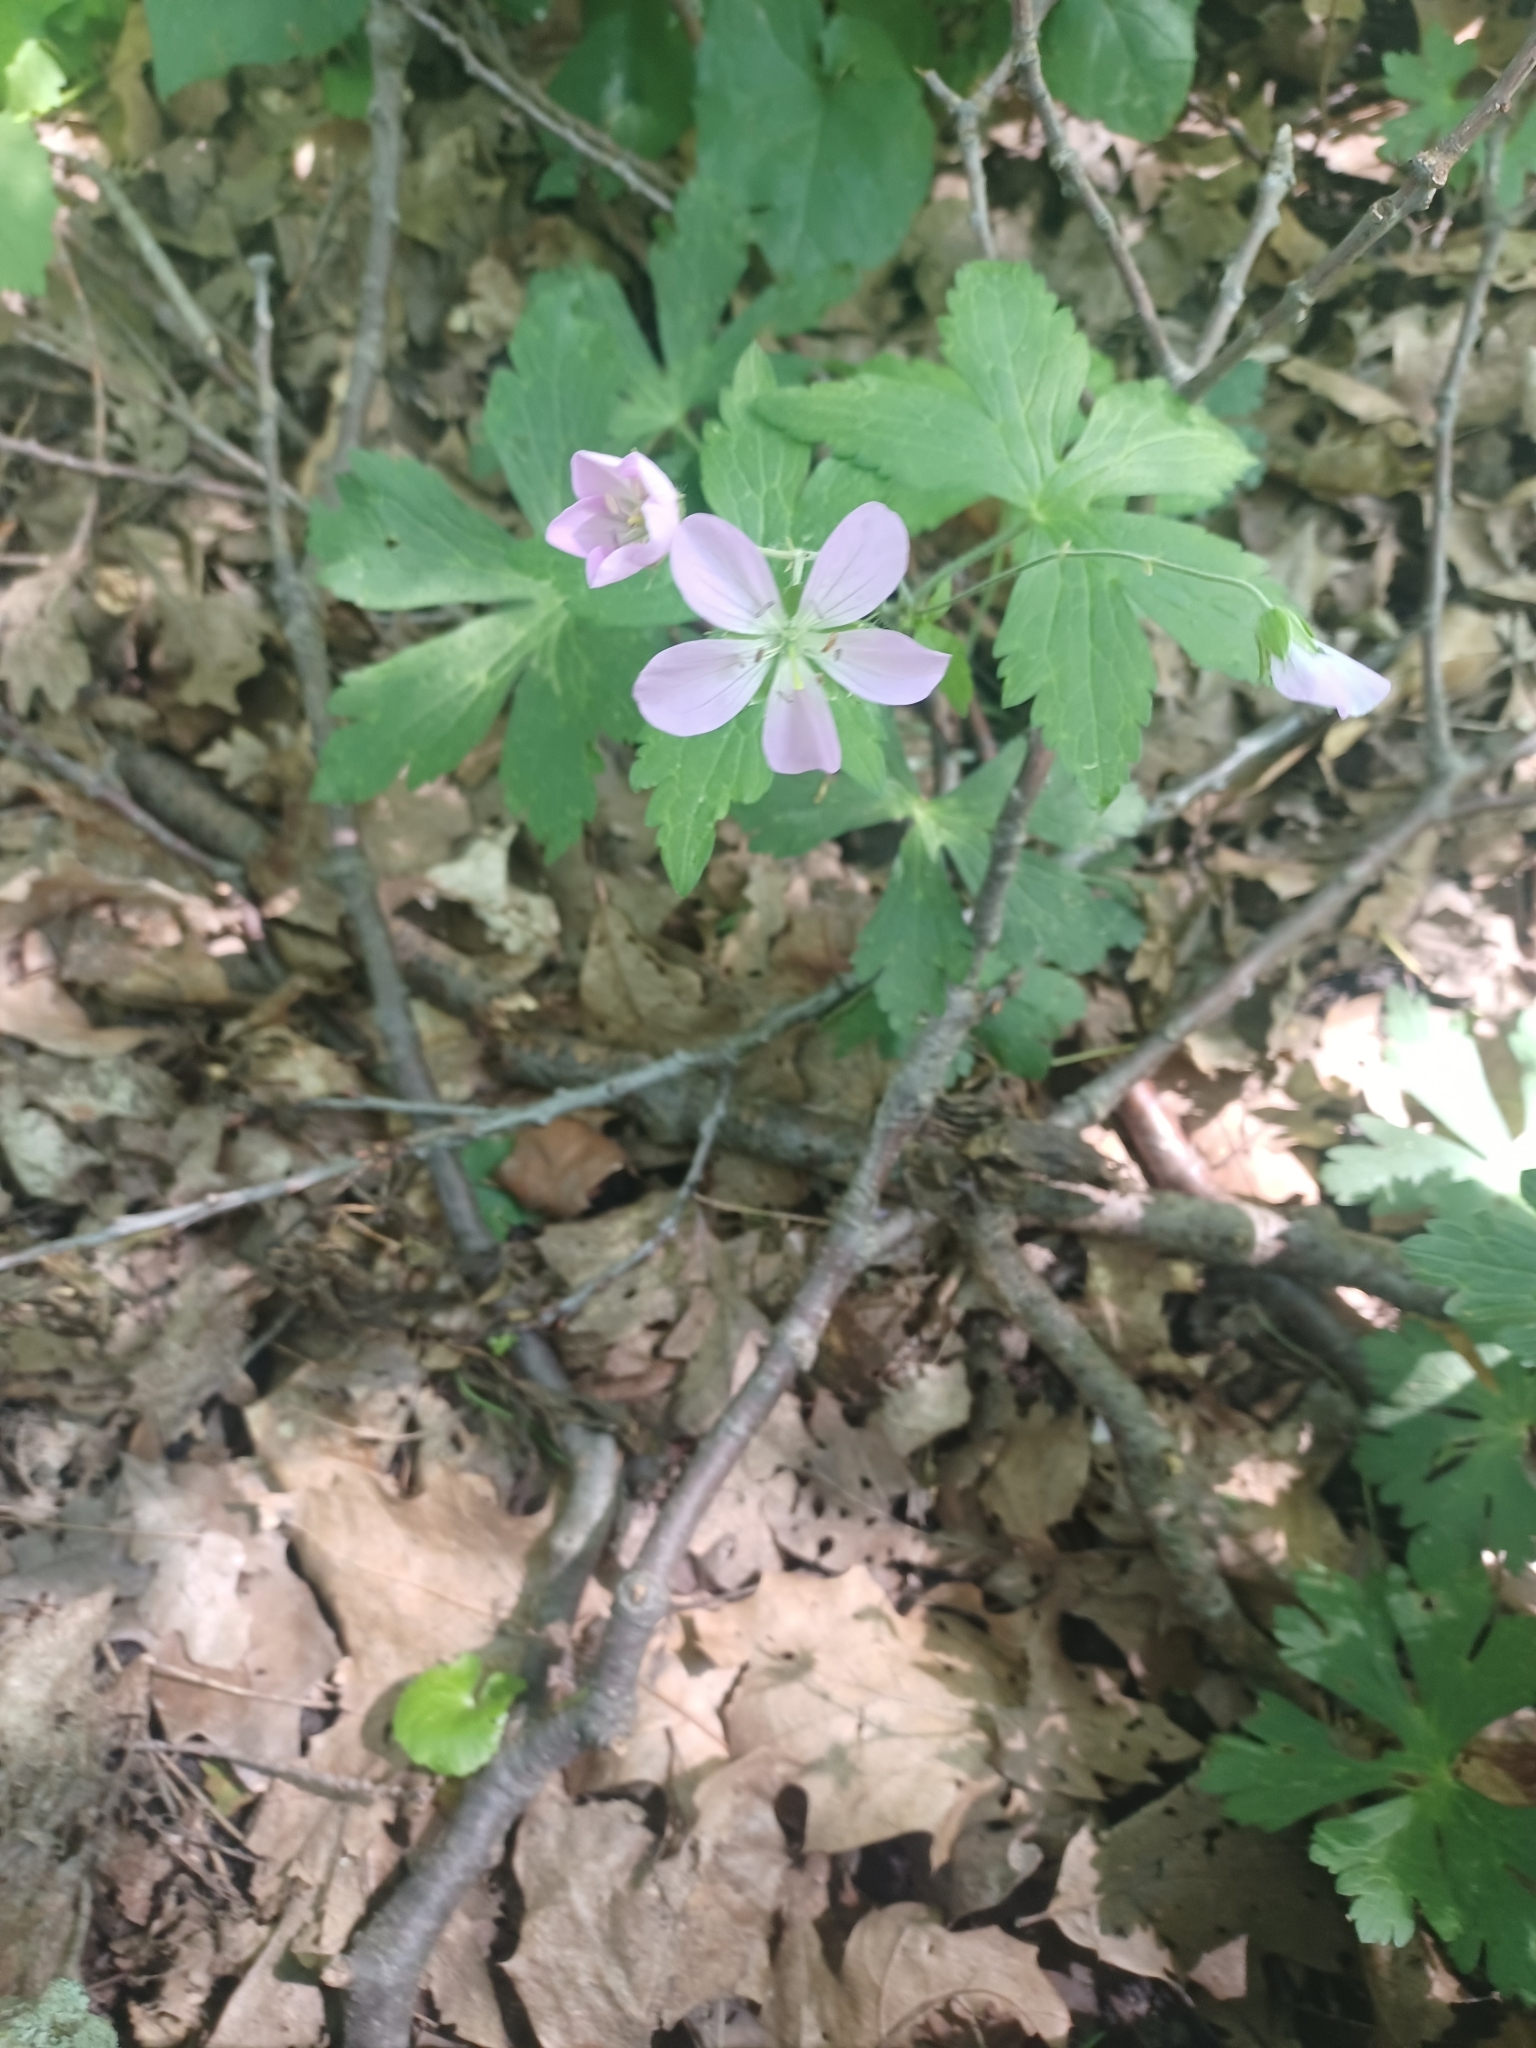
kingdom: Plantae
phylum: Tracheophyta
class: Magnoliopsida
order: Geraniales
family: Geraniaceae
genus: Geranium
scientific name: Geranium maculatum
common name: Spotted geranium
